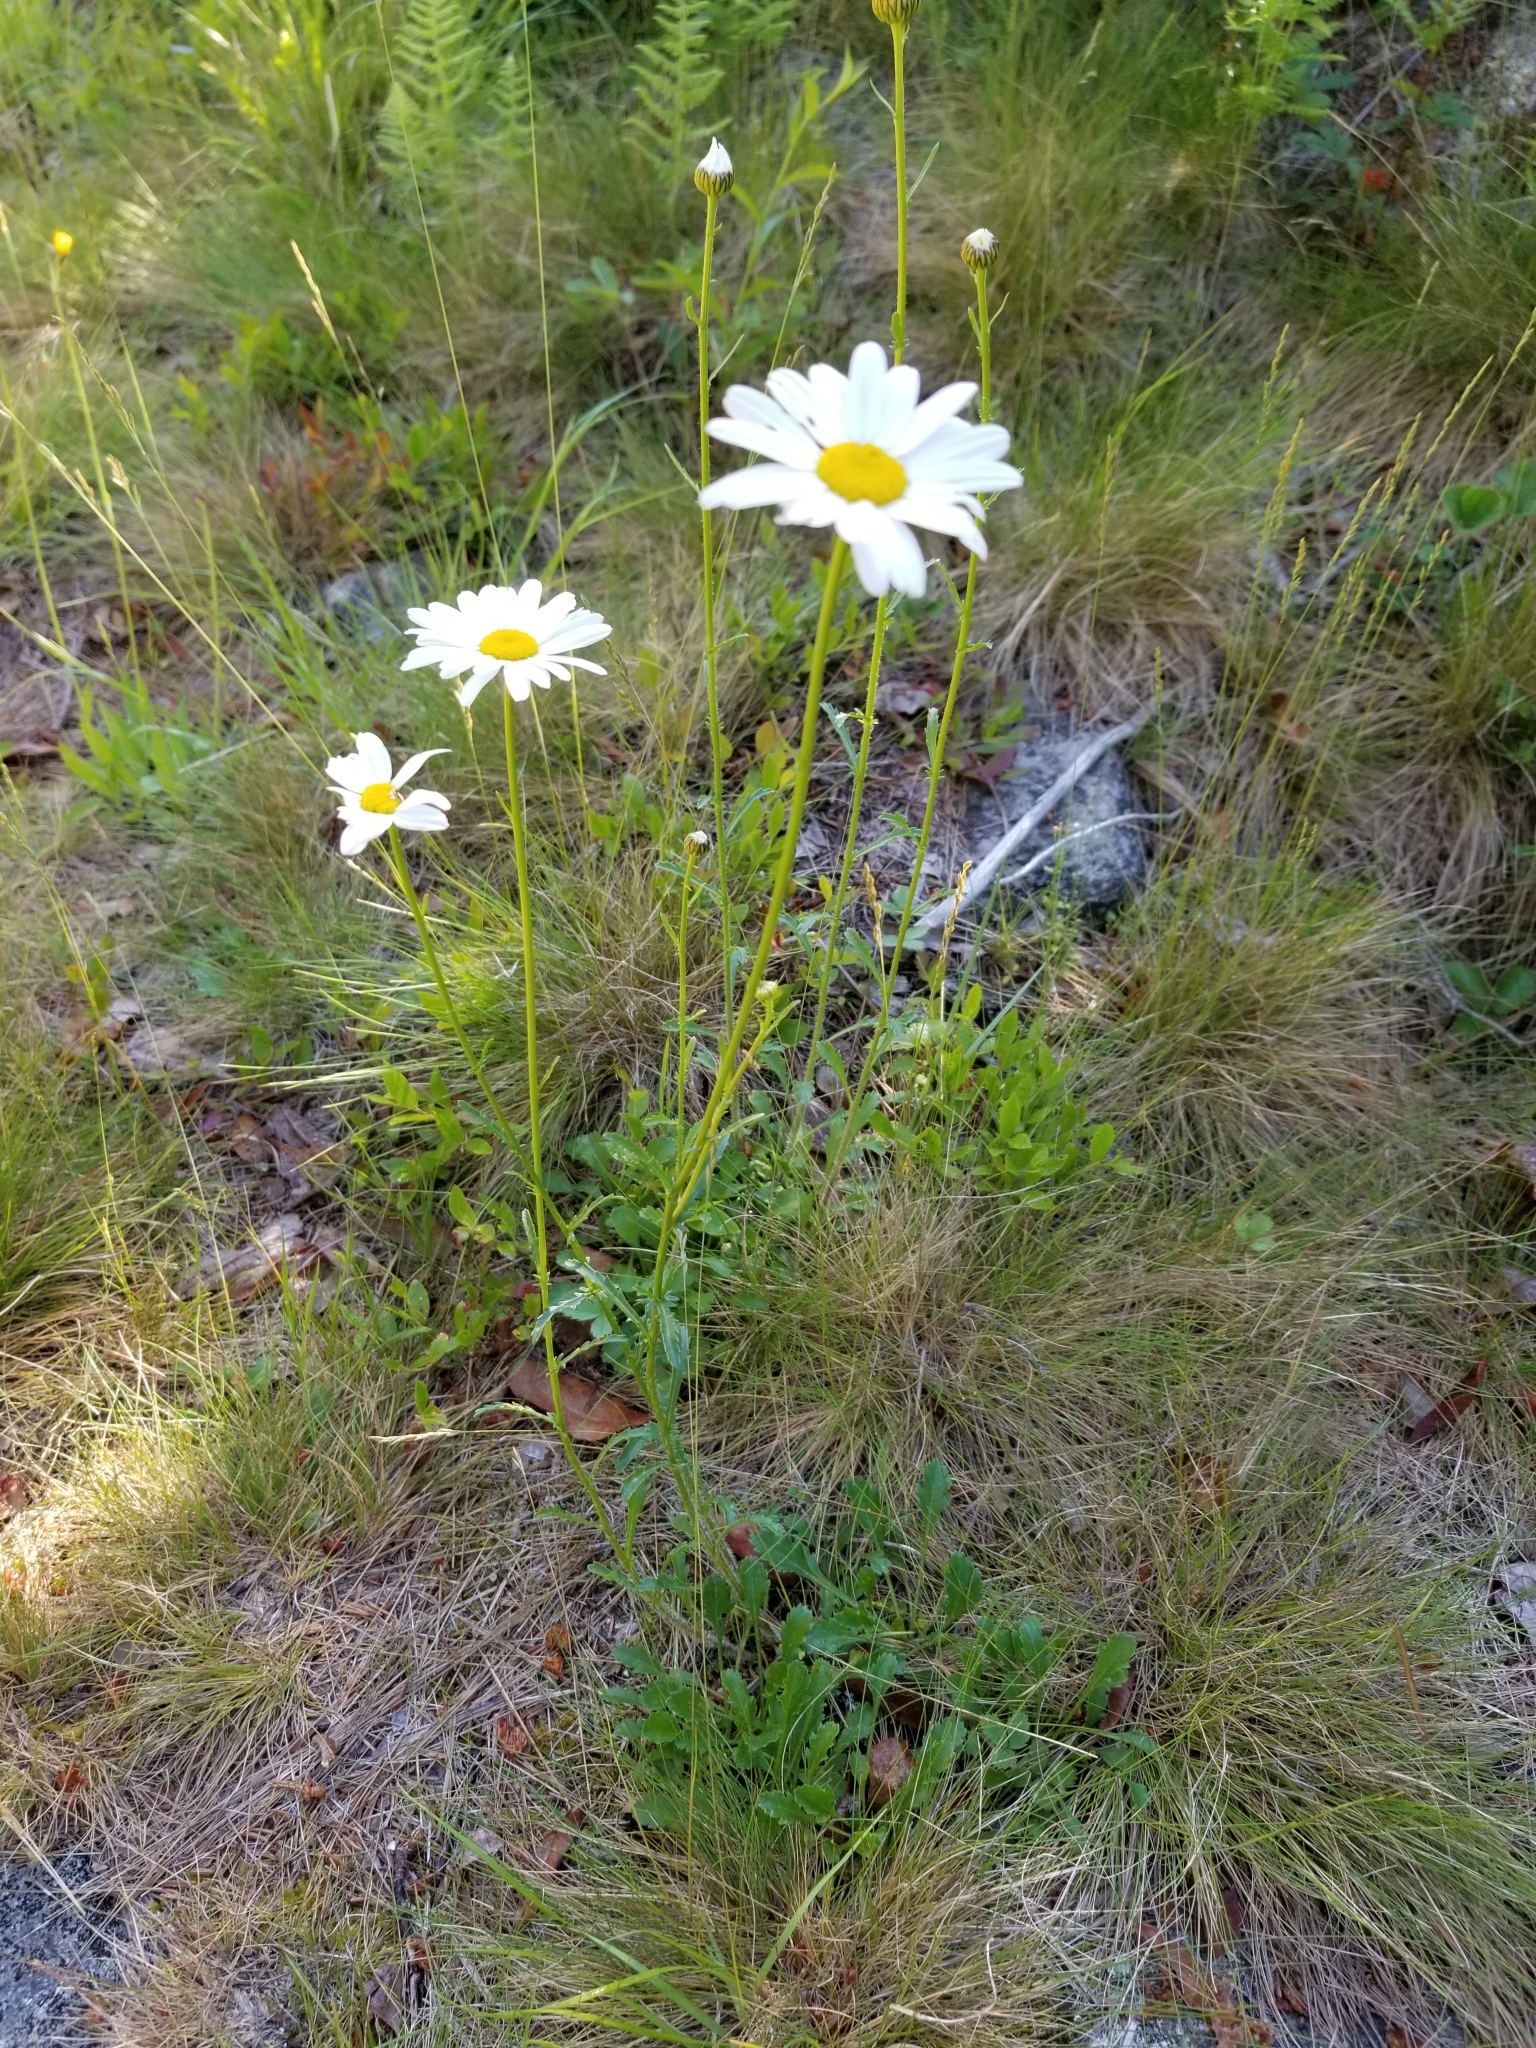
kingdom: Plantae
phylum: Tracheophyta
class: Magnoliopsida
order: Asterales
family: Asteraceae
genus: Leucanthemum
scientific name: Leucanthemum vulgare
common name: Oxeye daisy
